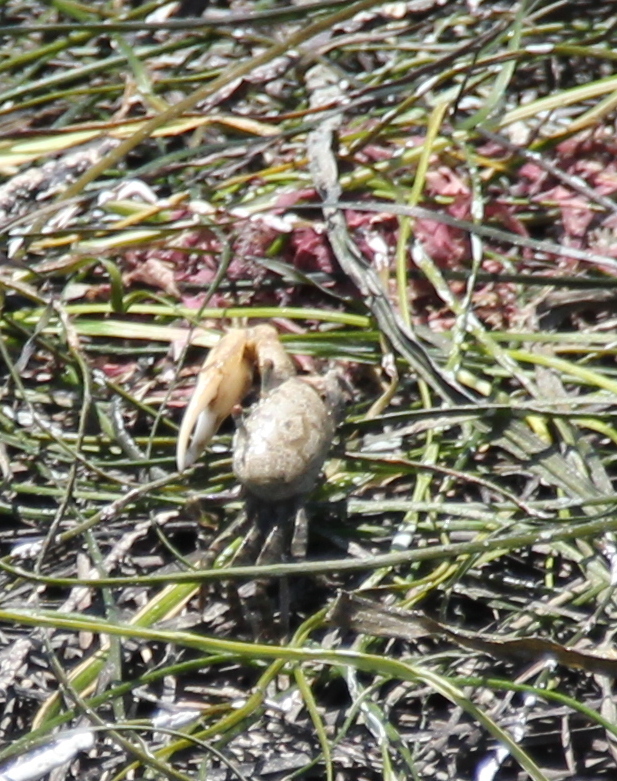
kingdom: Animalia
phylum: Arthropoda
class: Malacostraca
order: Decapoda
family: Ocypodidae
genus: Leptuca
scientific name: Leptuca crenulata
